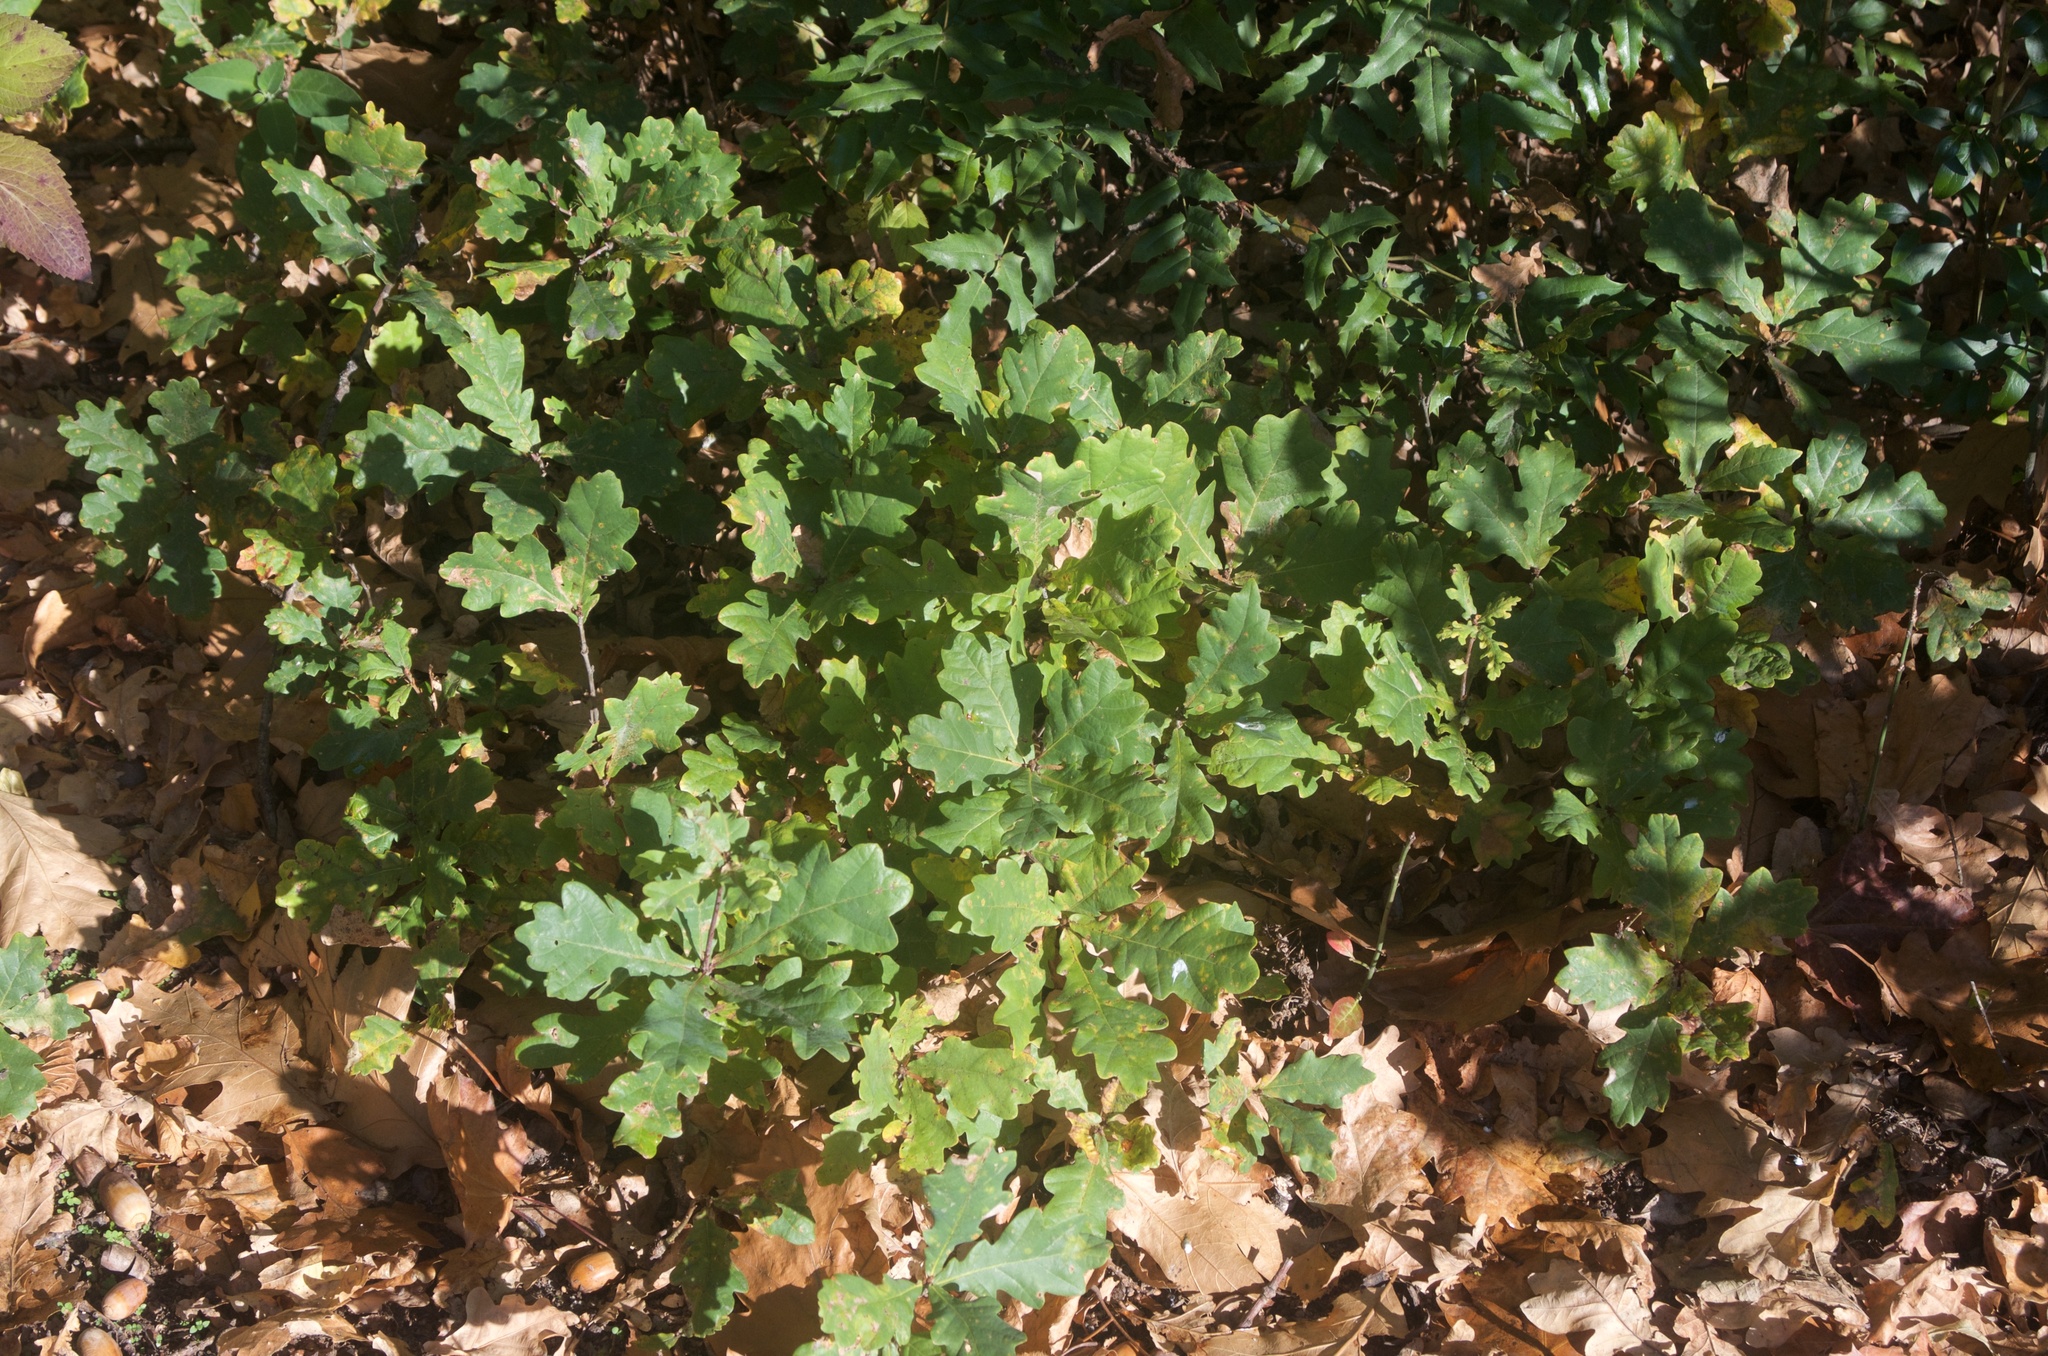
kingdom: Plantae
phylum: Tracheophyta
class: Magnoliopsida
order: Fagales
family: Fagaceae
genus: Quercus
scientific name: Quercus robur
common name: Pedunculate oak
